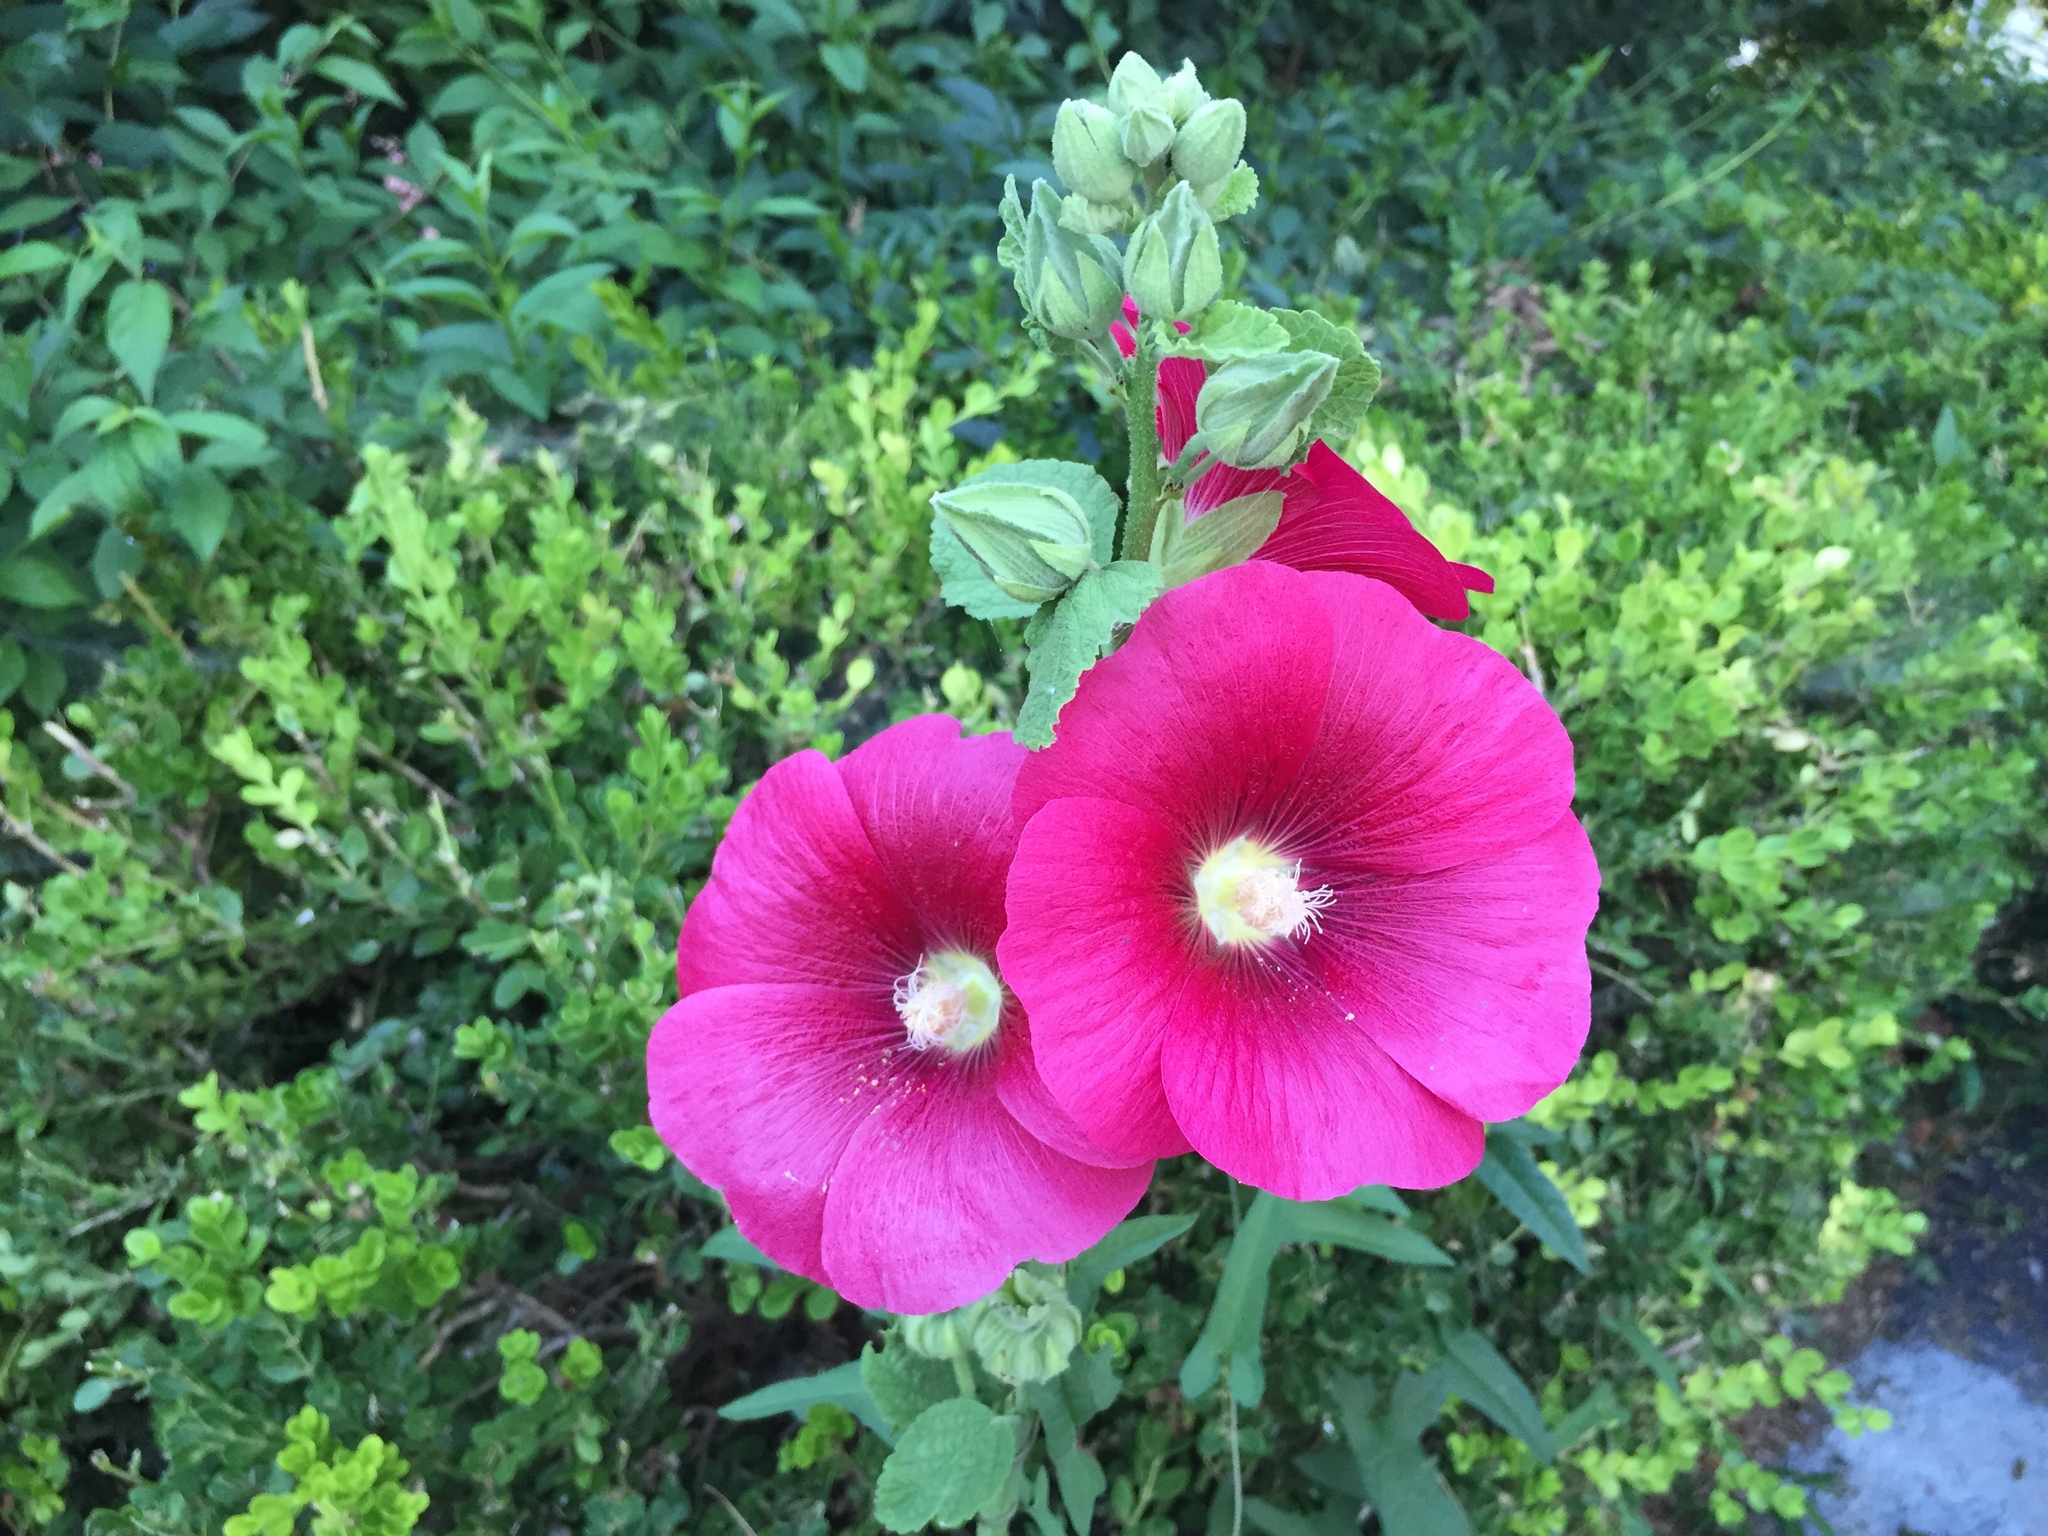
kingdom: Plantae
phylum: Tracheophyta
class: Magnoliopsida
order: Malvales
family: Malvaceae
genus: Alcea
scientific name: Alcea rosea
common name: Hollyhock
